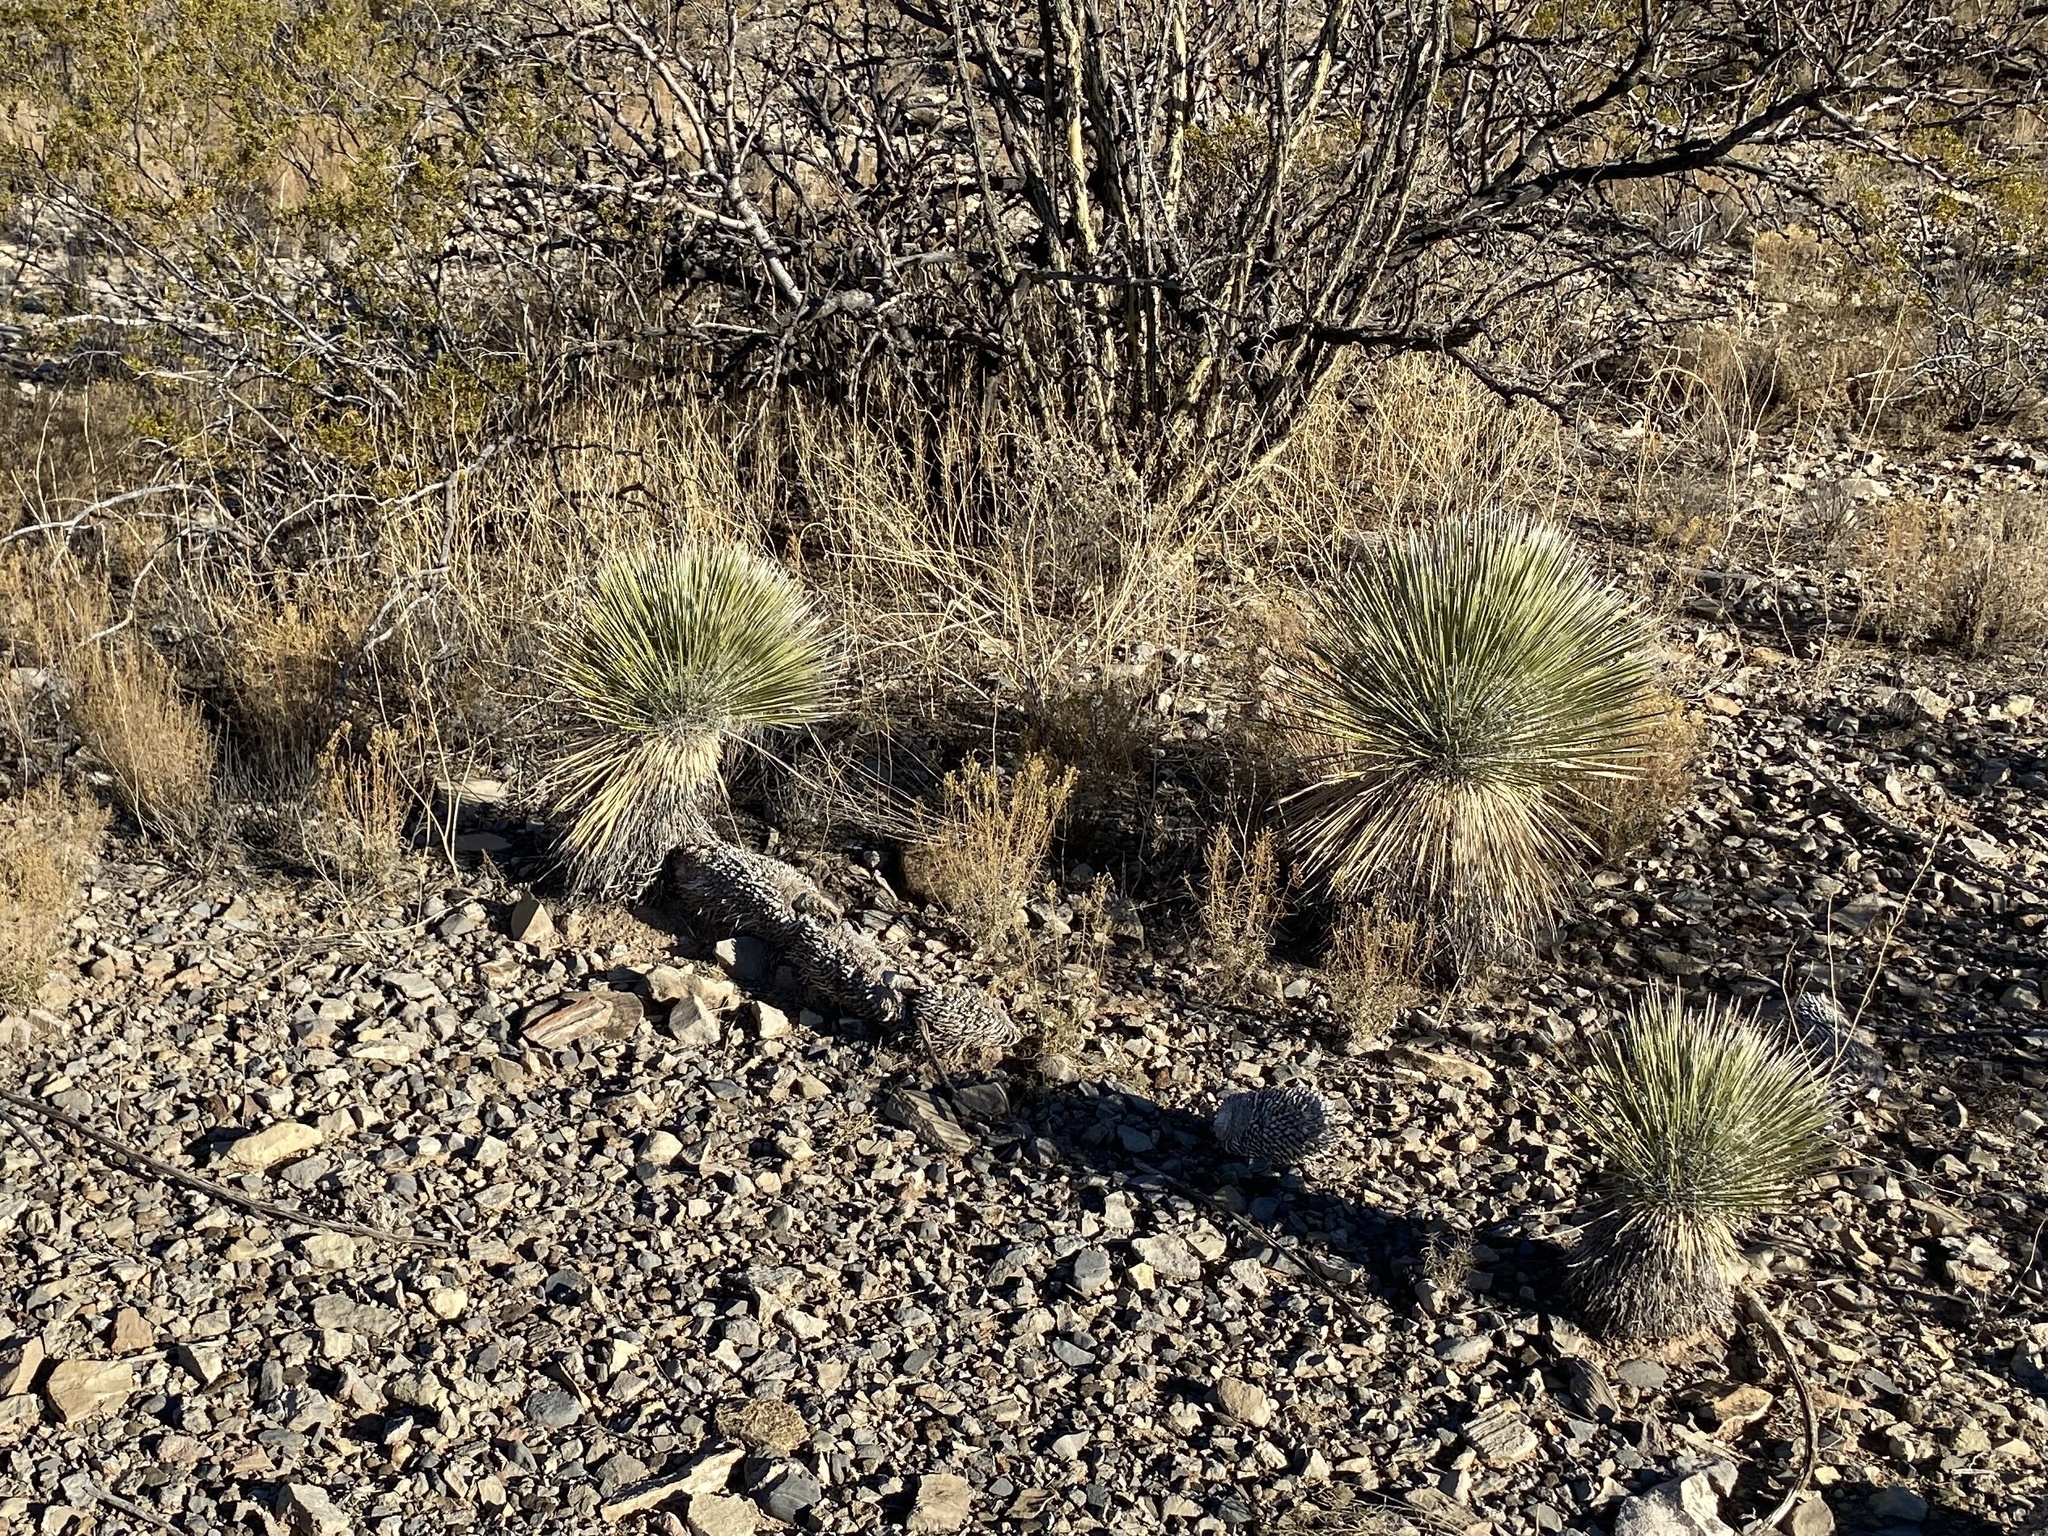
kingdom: Plantae
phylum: Tracheophyta
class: Liliopsida
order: Asparagales
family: Asparagaceae
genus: Yucca
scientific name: Yucca elata
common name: Palmella
